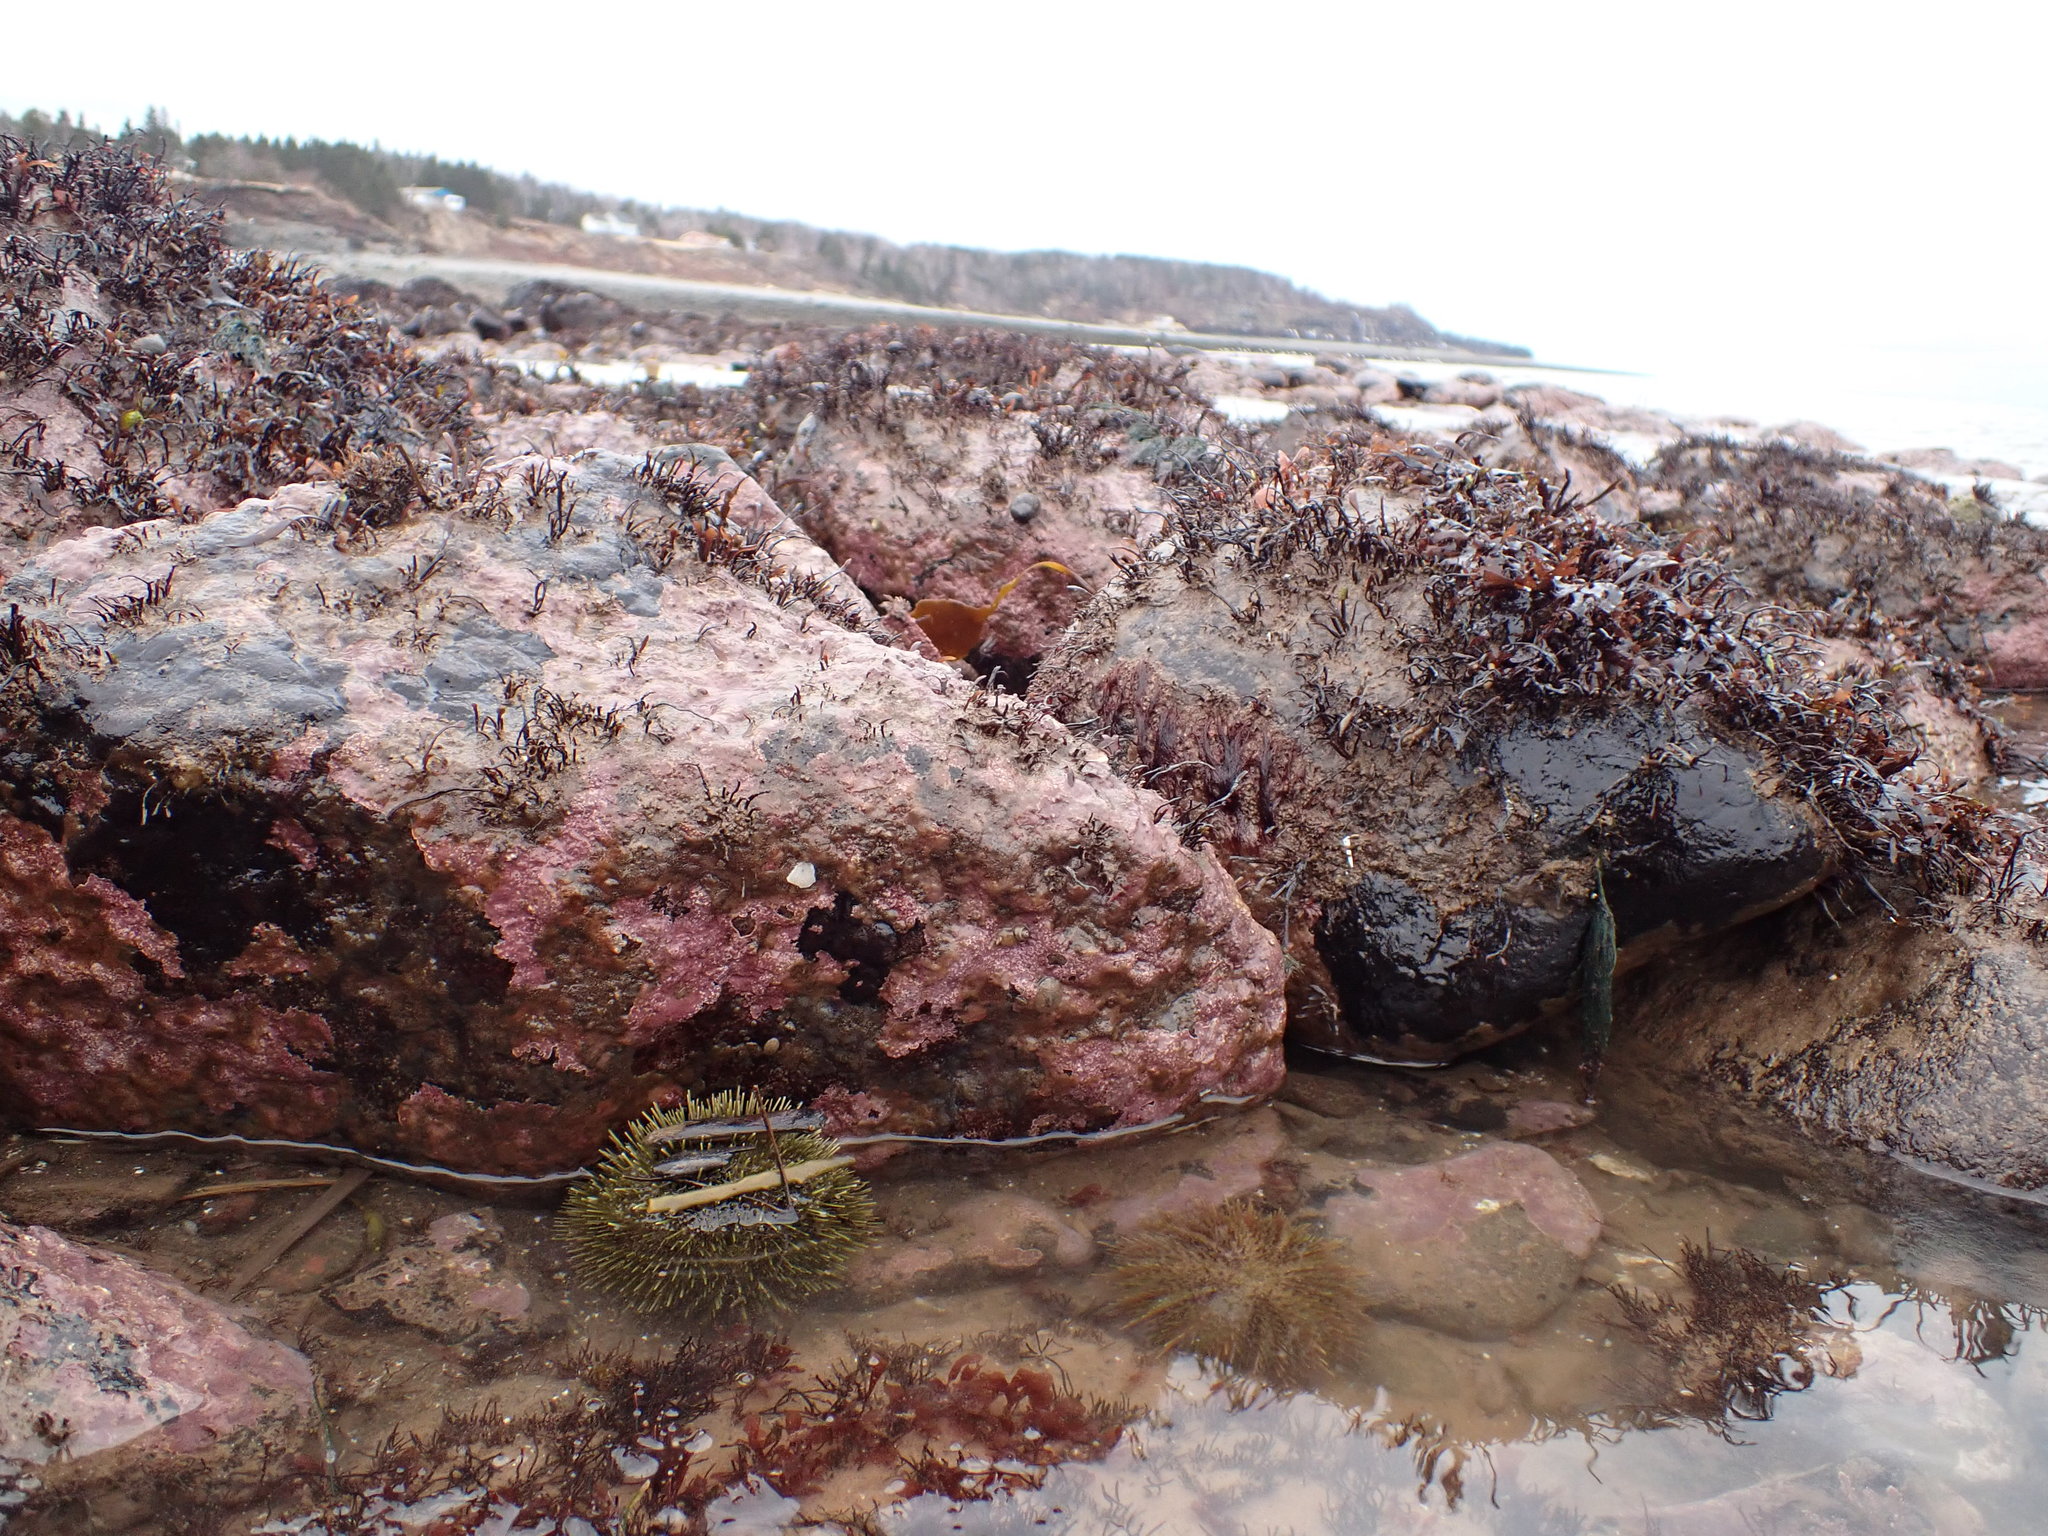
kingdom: Animalia
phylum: Echinodermata
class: Echinoidea
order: Camarodonta
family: Strongylocentrotidae
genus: Strongylocentrotus
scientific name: Strongylocentrotus droebachiensis
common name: Northern sea urchin
